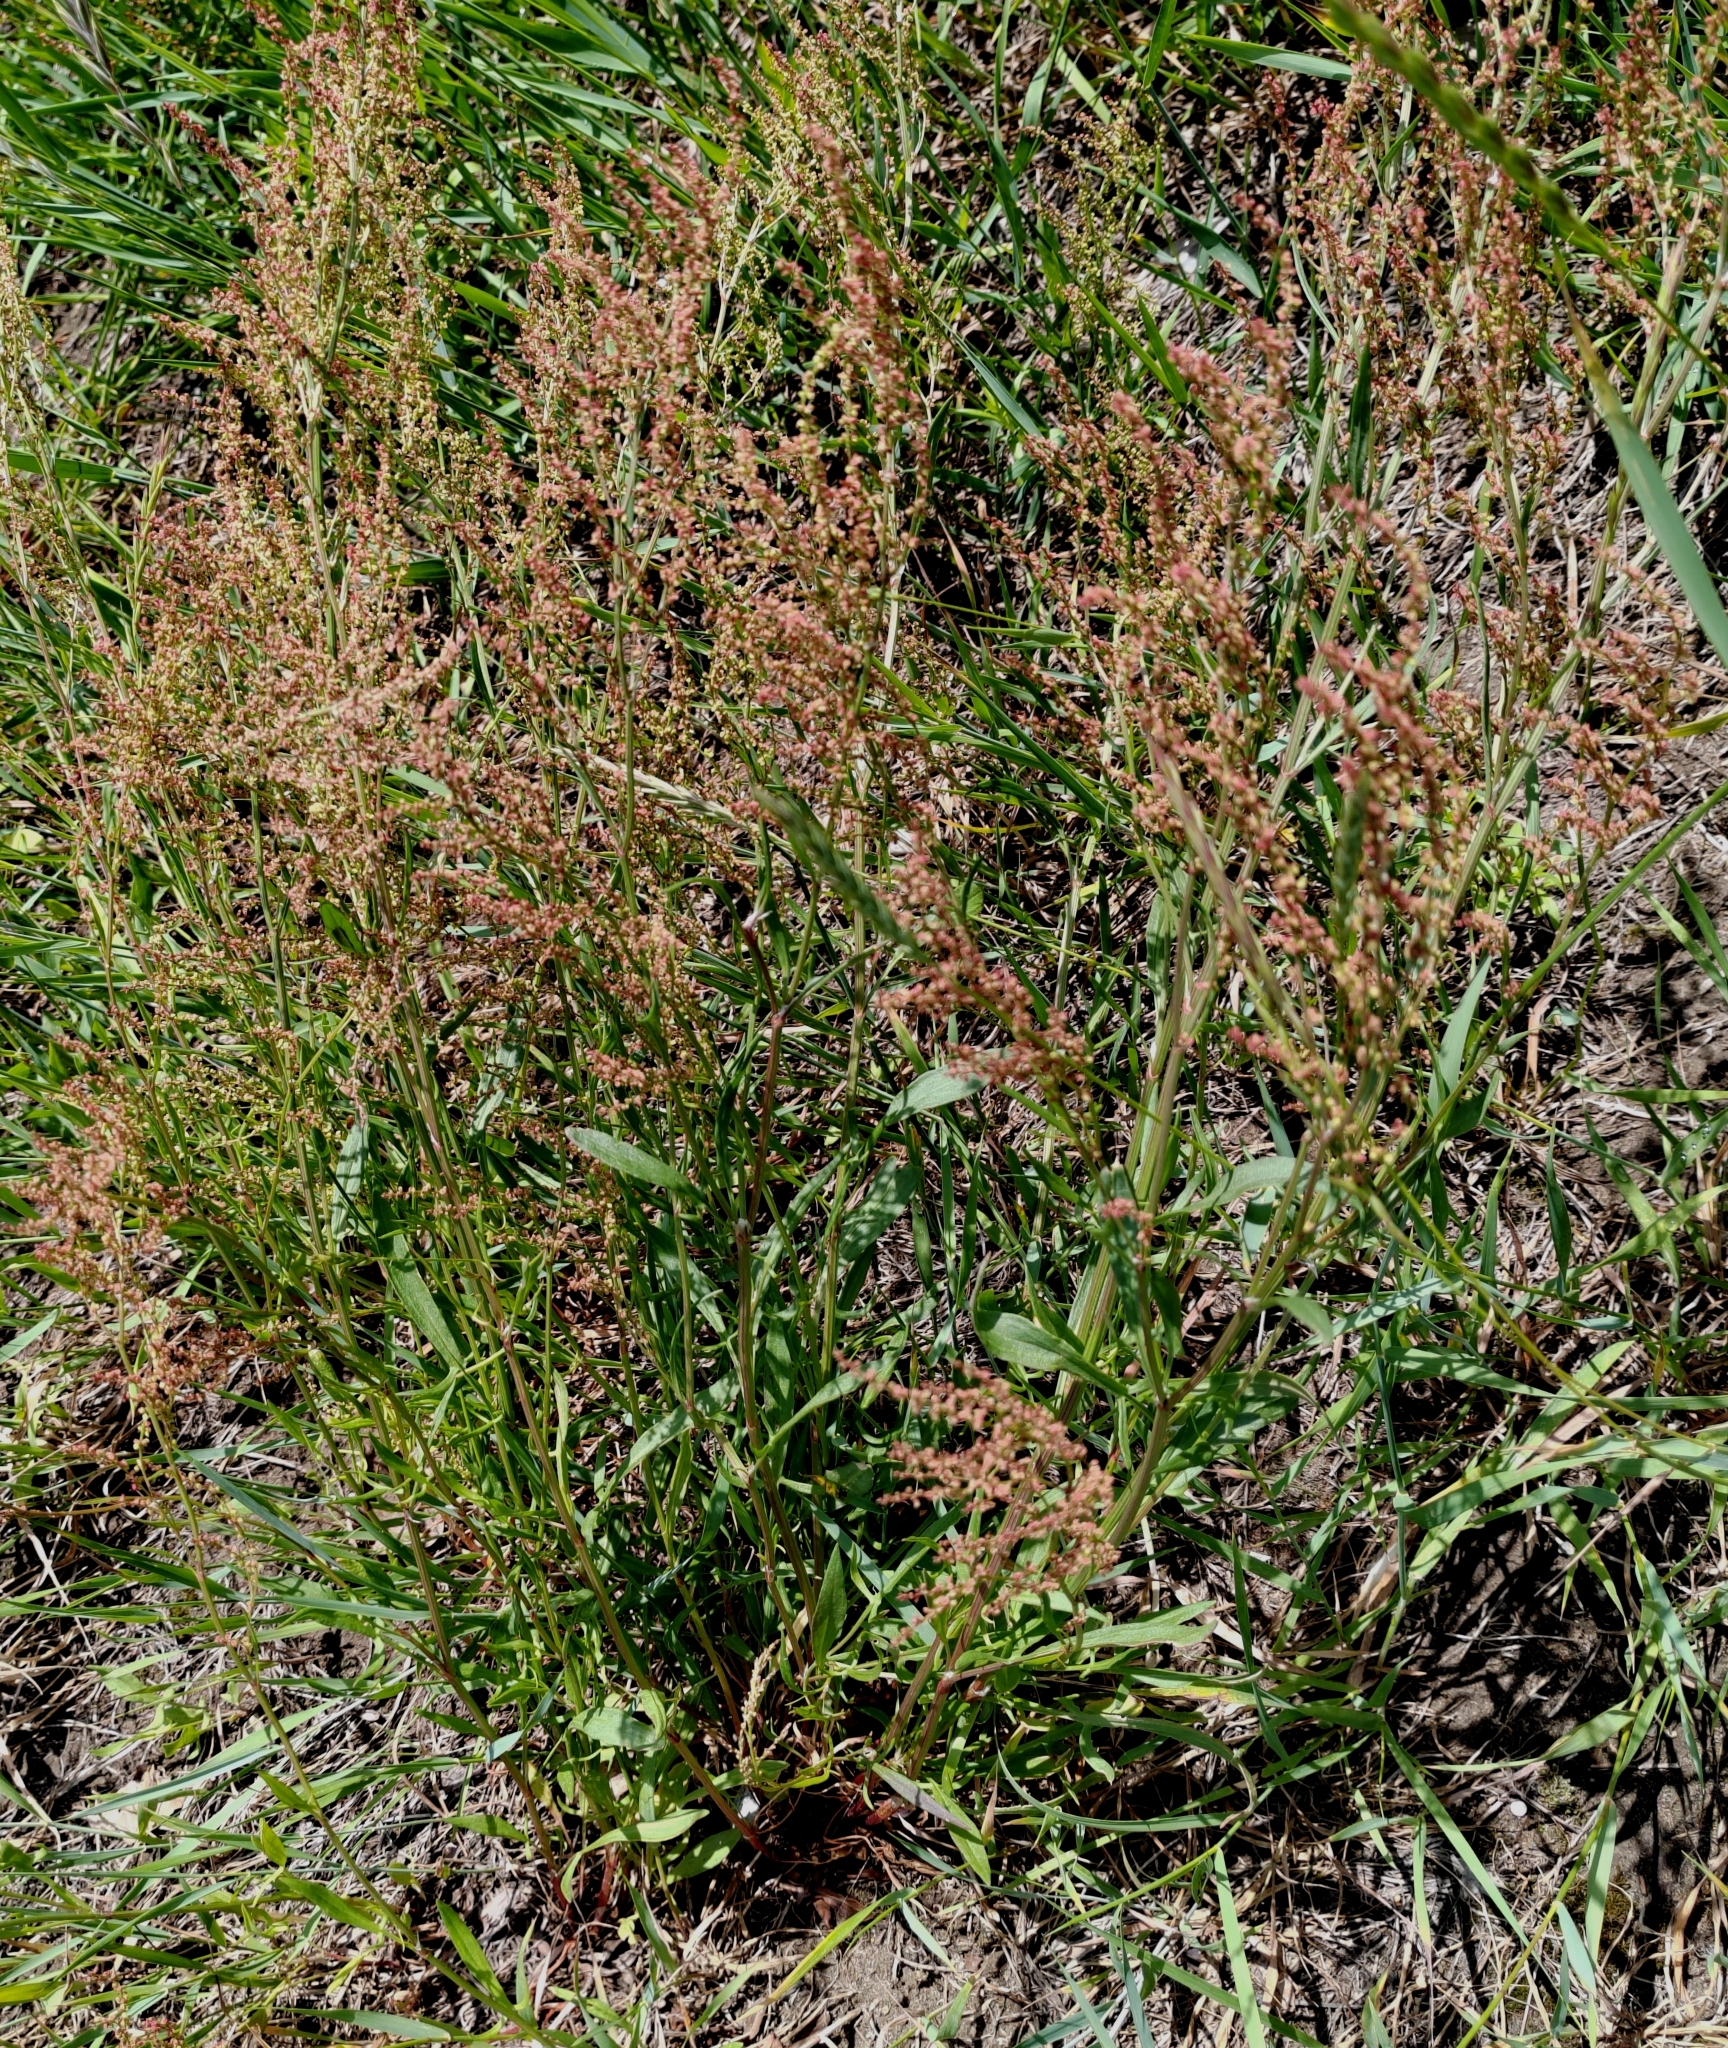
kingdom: Plantae
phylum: Tracheophyta
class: Magnoliopsida
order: Caryophyllales
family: Polygonaceae
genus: Rumex
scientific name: Rumex acetosella
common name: Common sheep sorrel
